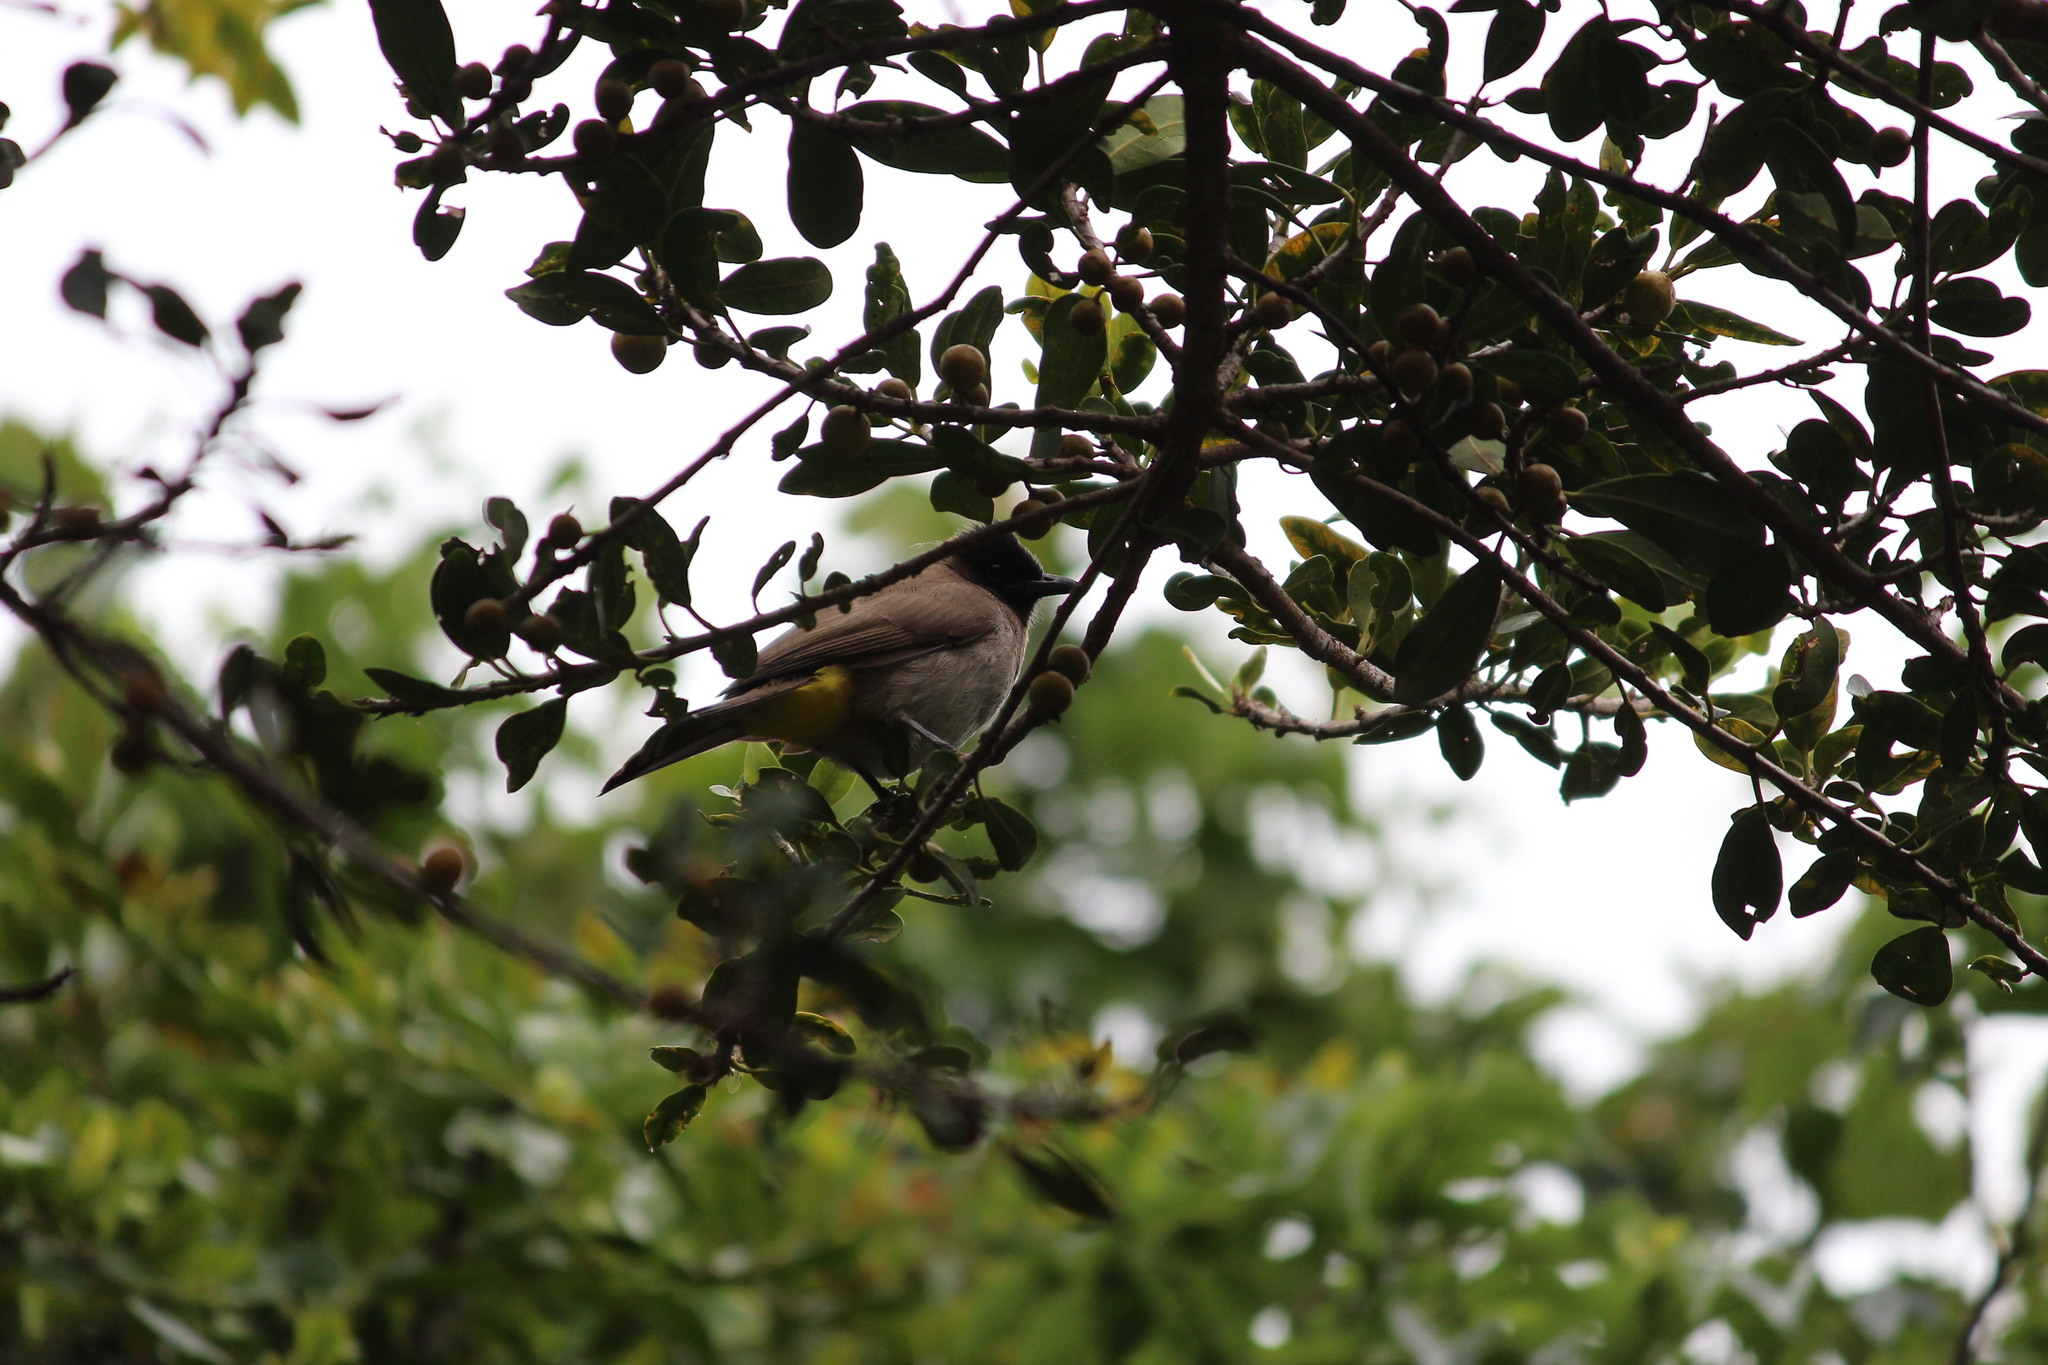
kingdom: Animalia
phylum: Chordata
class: Aves
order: Passeriformes
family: Pycnonotidae
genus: Pycnonotus
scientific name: Pycnonotus barbatus
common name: Common bulbul
